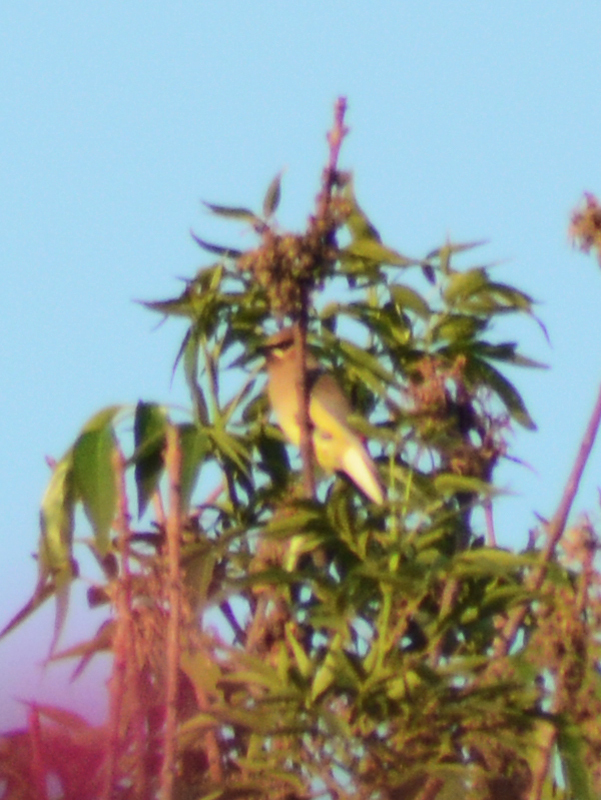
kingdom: Animalia
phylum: Chordata
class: Aves
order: Passeriformes
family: Bombycillidae
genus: Bombycilla
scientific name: Bombycilla cedrorum
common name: Cedar waxwing
